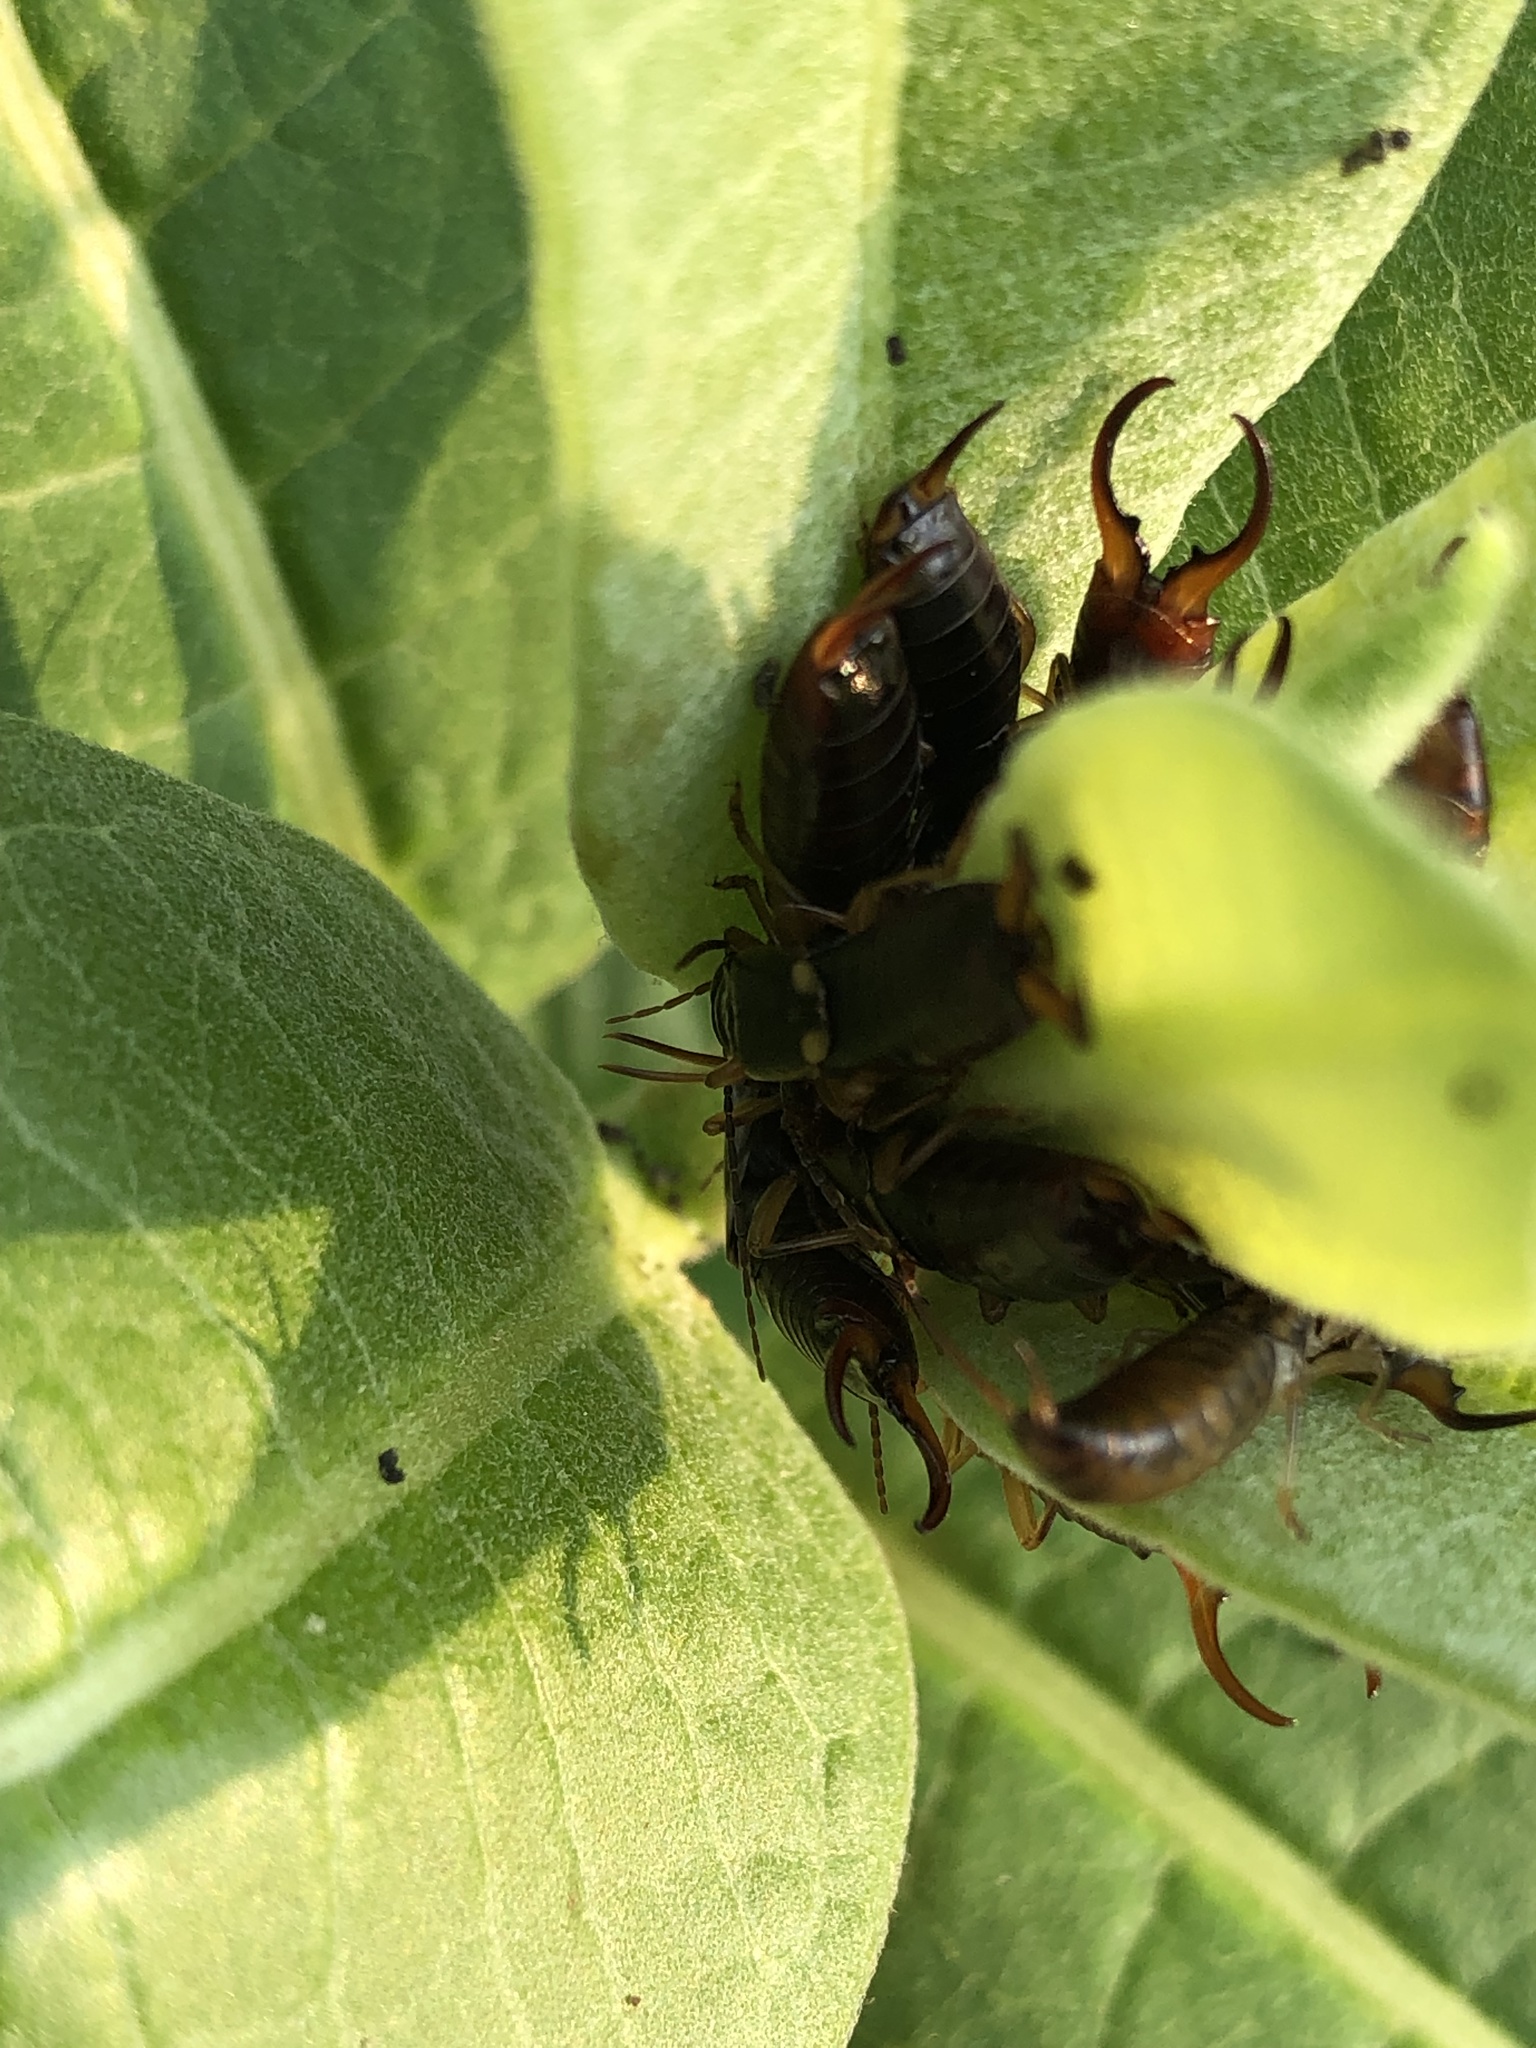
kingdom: Animalia
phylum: Arthropoda
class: Insecta
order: Dermaptera
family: Forficulidae
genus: Forficula
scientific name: Forficula
